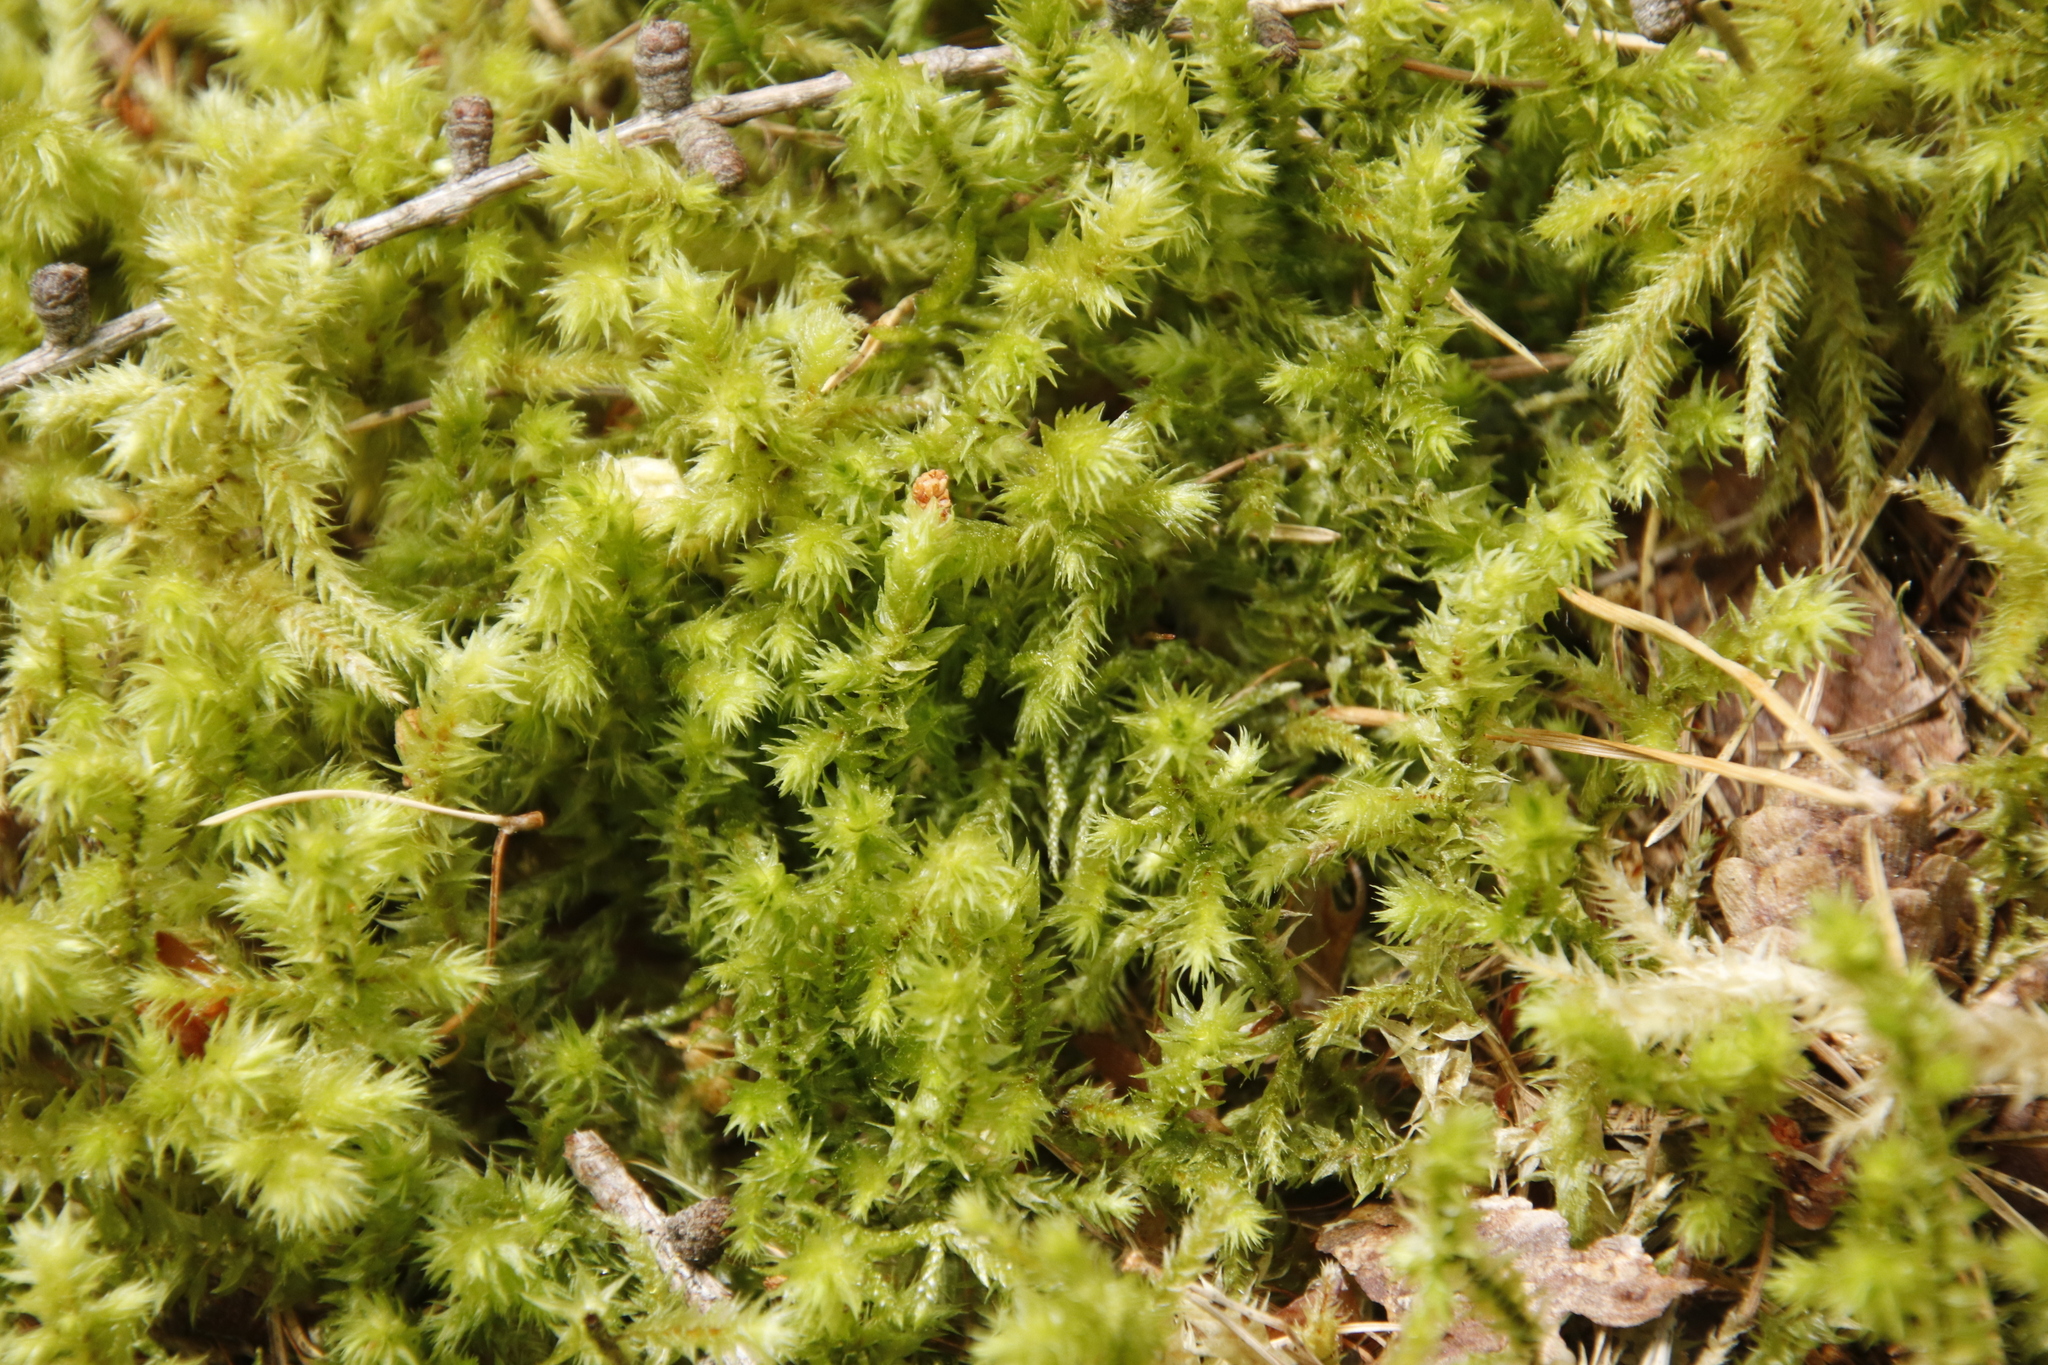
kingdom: Plantae
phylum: Bryophyta
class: Bryopsida
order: Hypnales
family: Hylocomiaceae
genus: Hylocomiadelphus
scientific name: Hylocomiadelphus triquetrus
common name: Rough goose neck moss
